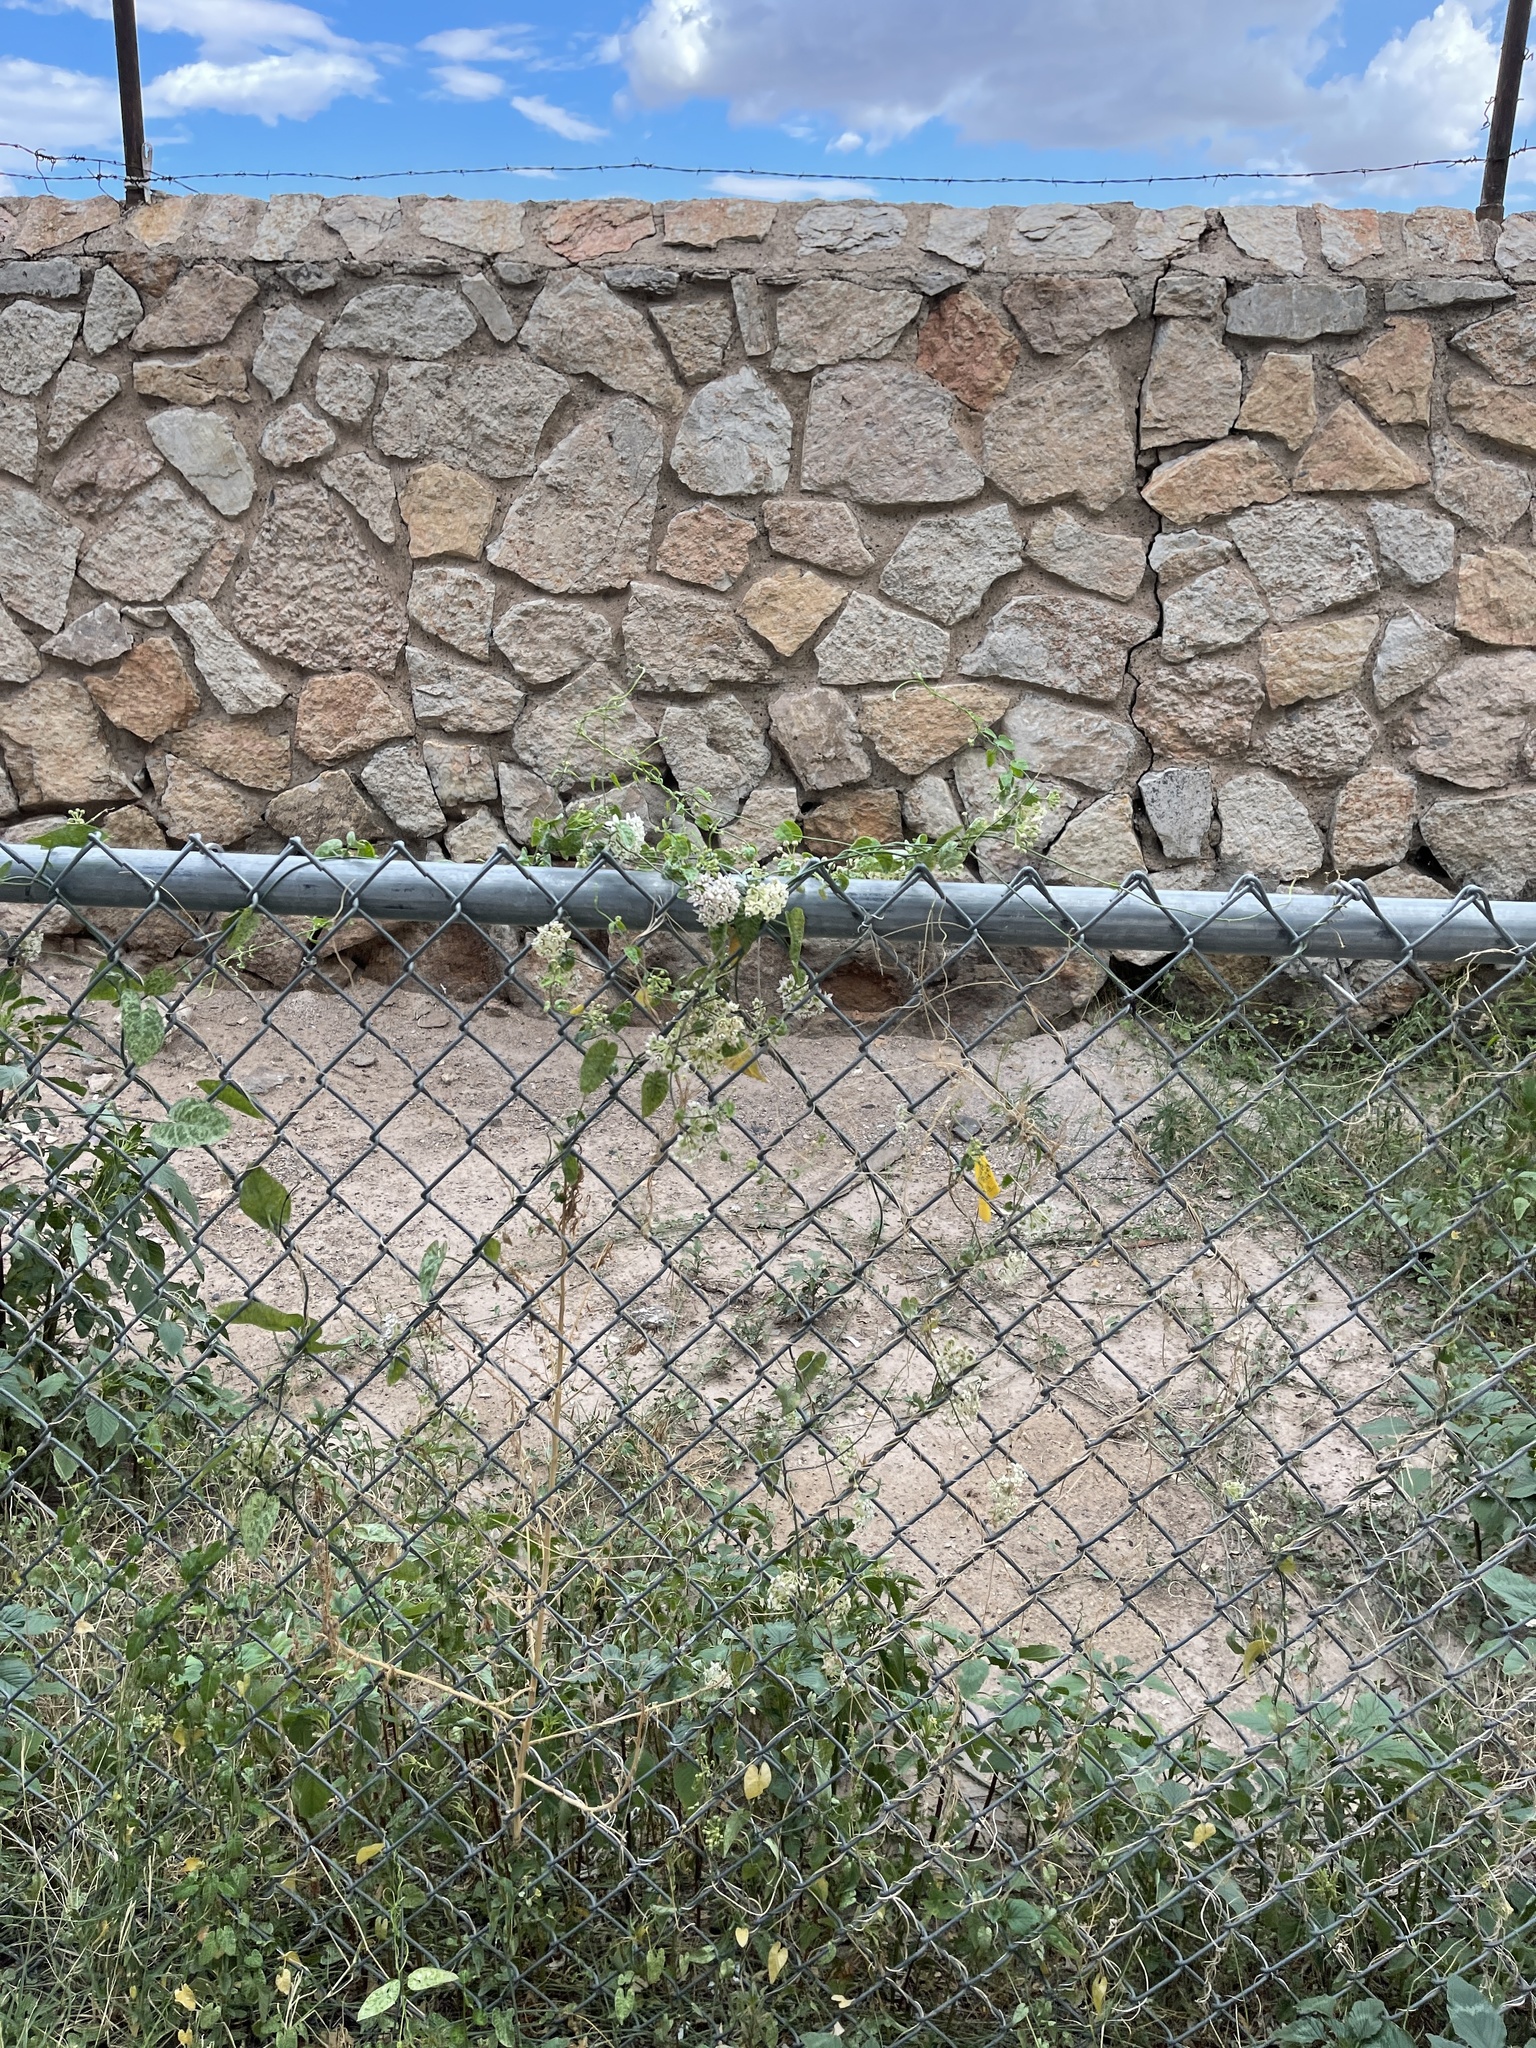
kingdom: Plantae
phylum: Tracheophyta
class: Magnoliopsida
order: Gentianales
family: Apocynaceae
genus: Funastrum
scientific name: Funastrum cynanchoides
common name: Climbing-milkweed
